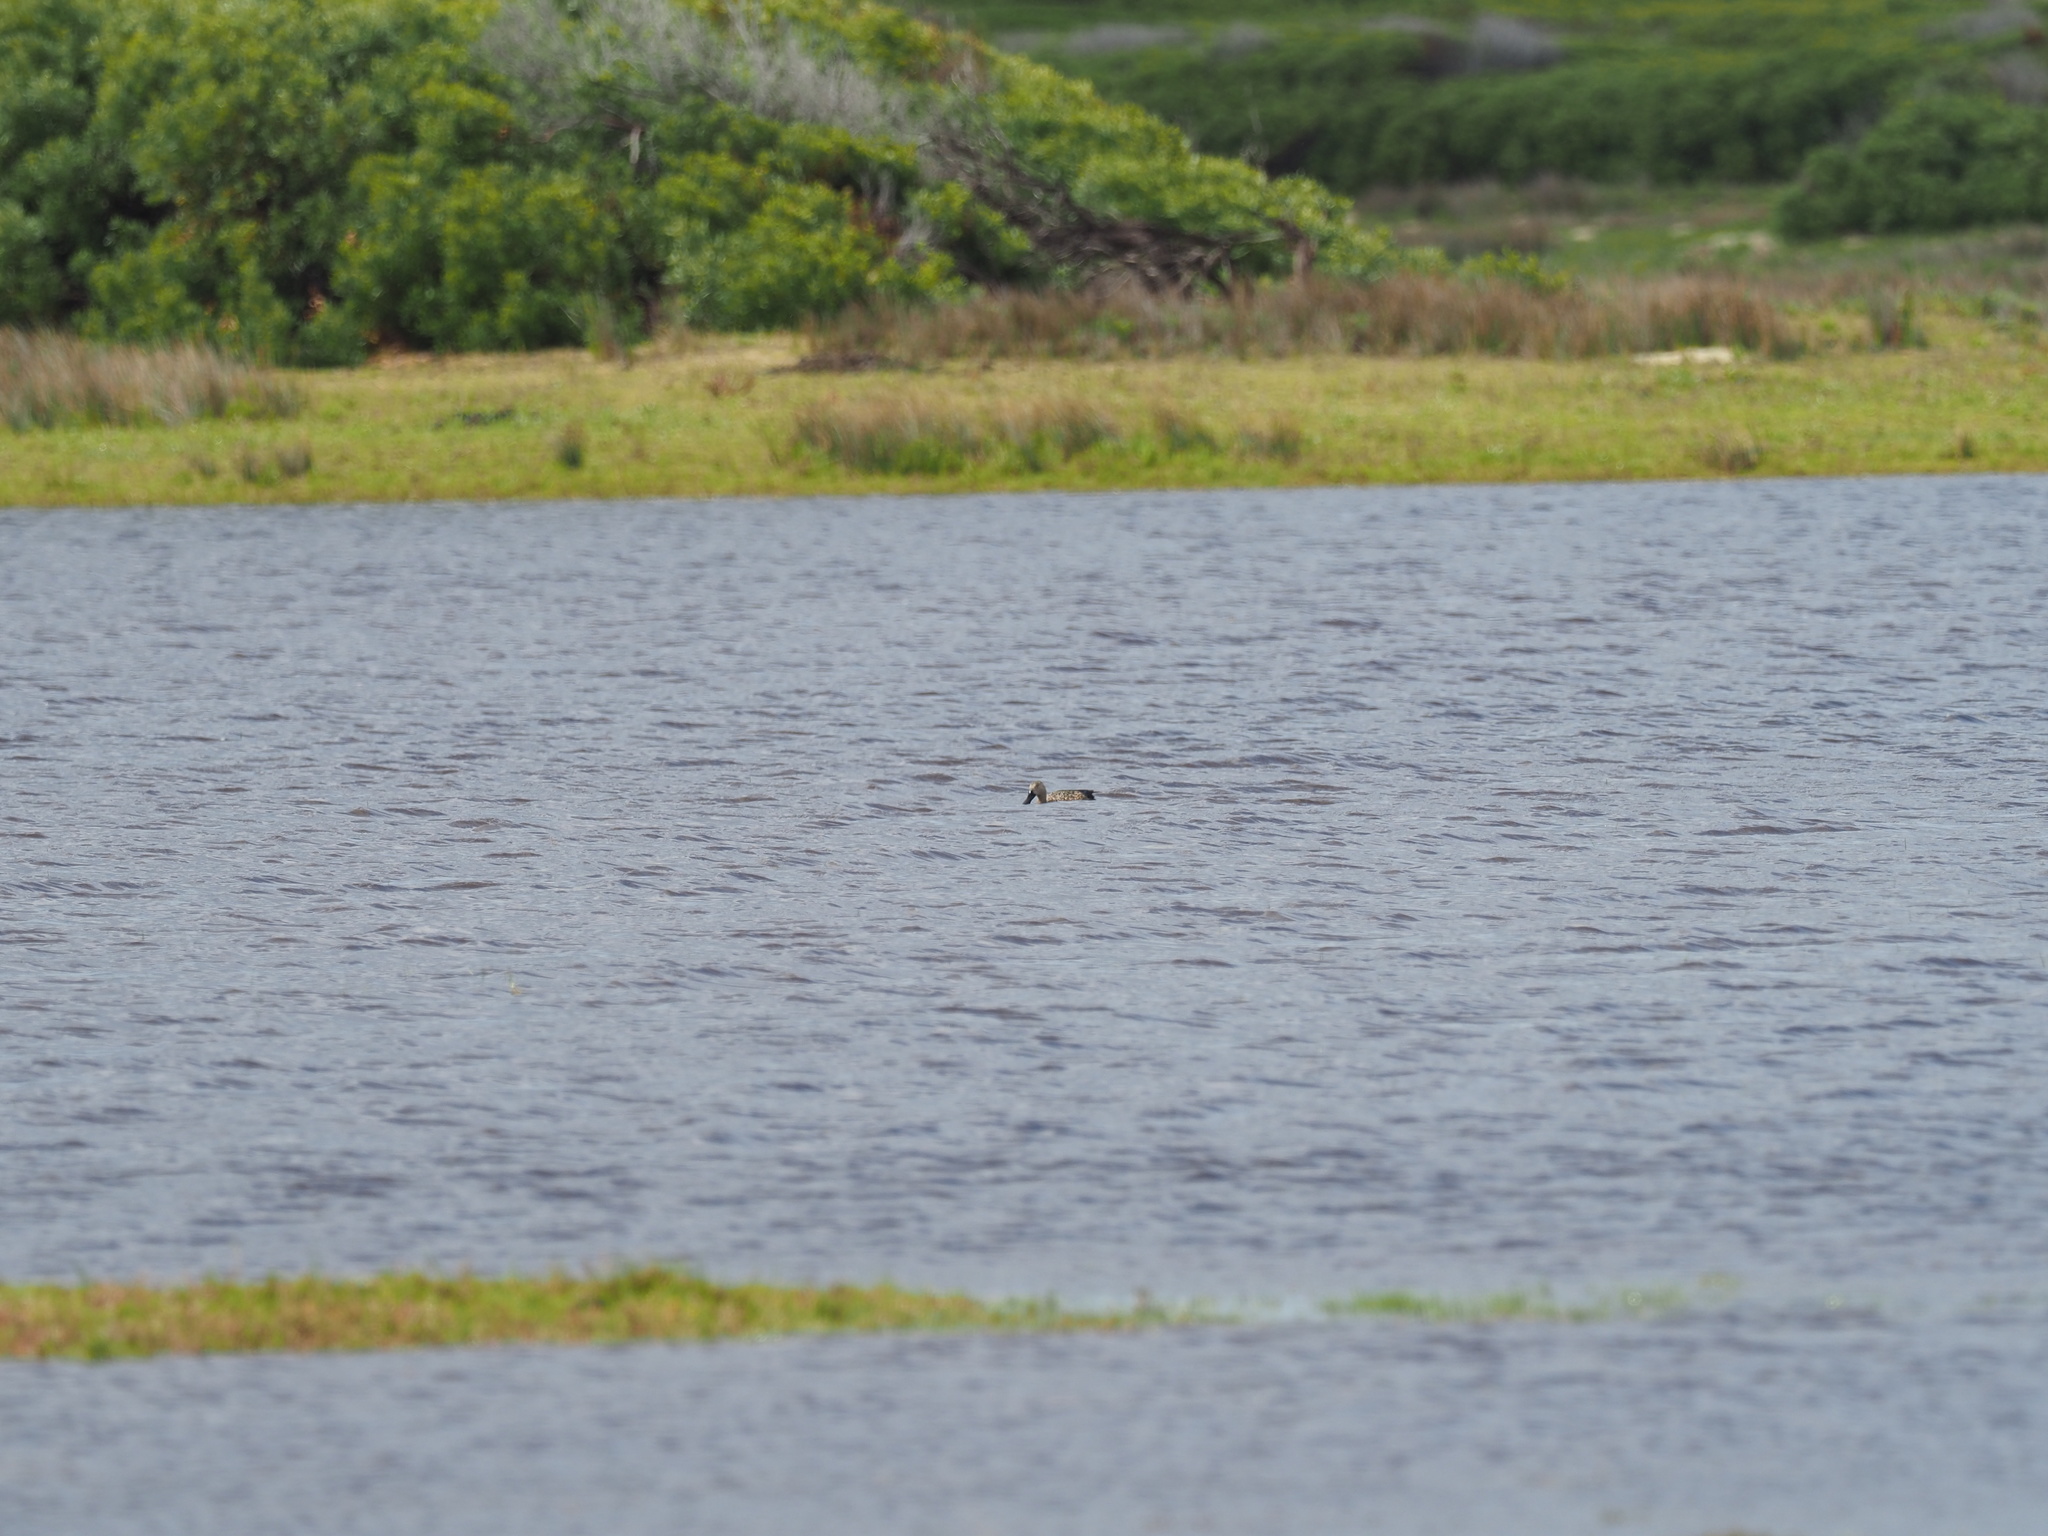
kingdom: Animalia
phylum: Chordata
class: Aves
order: Anseriformes
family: Anatidae
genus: Spatula
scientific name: Spatula smithii
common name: Cape shoveler
